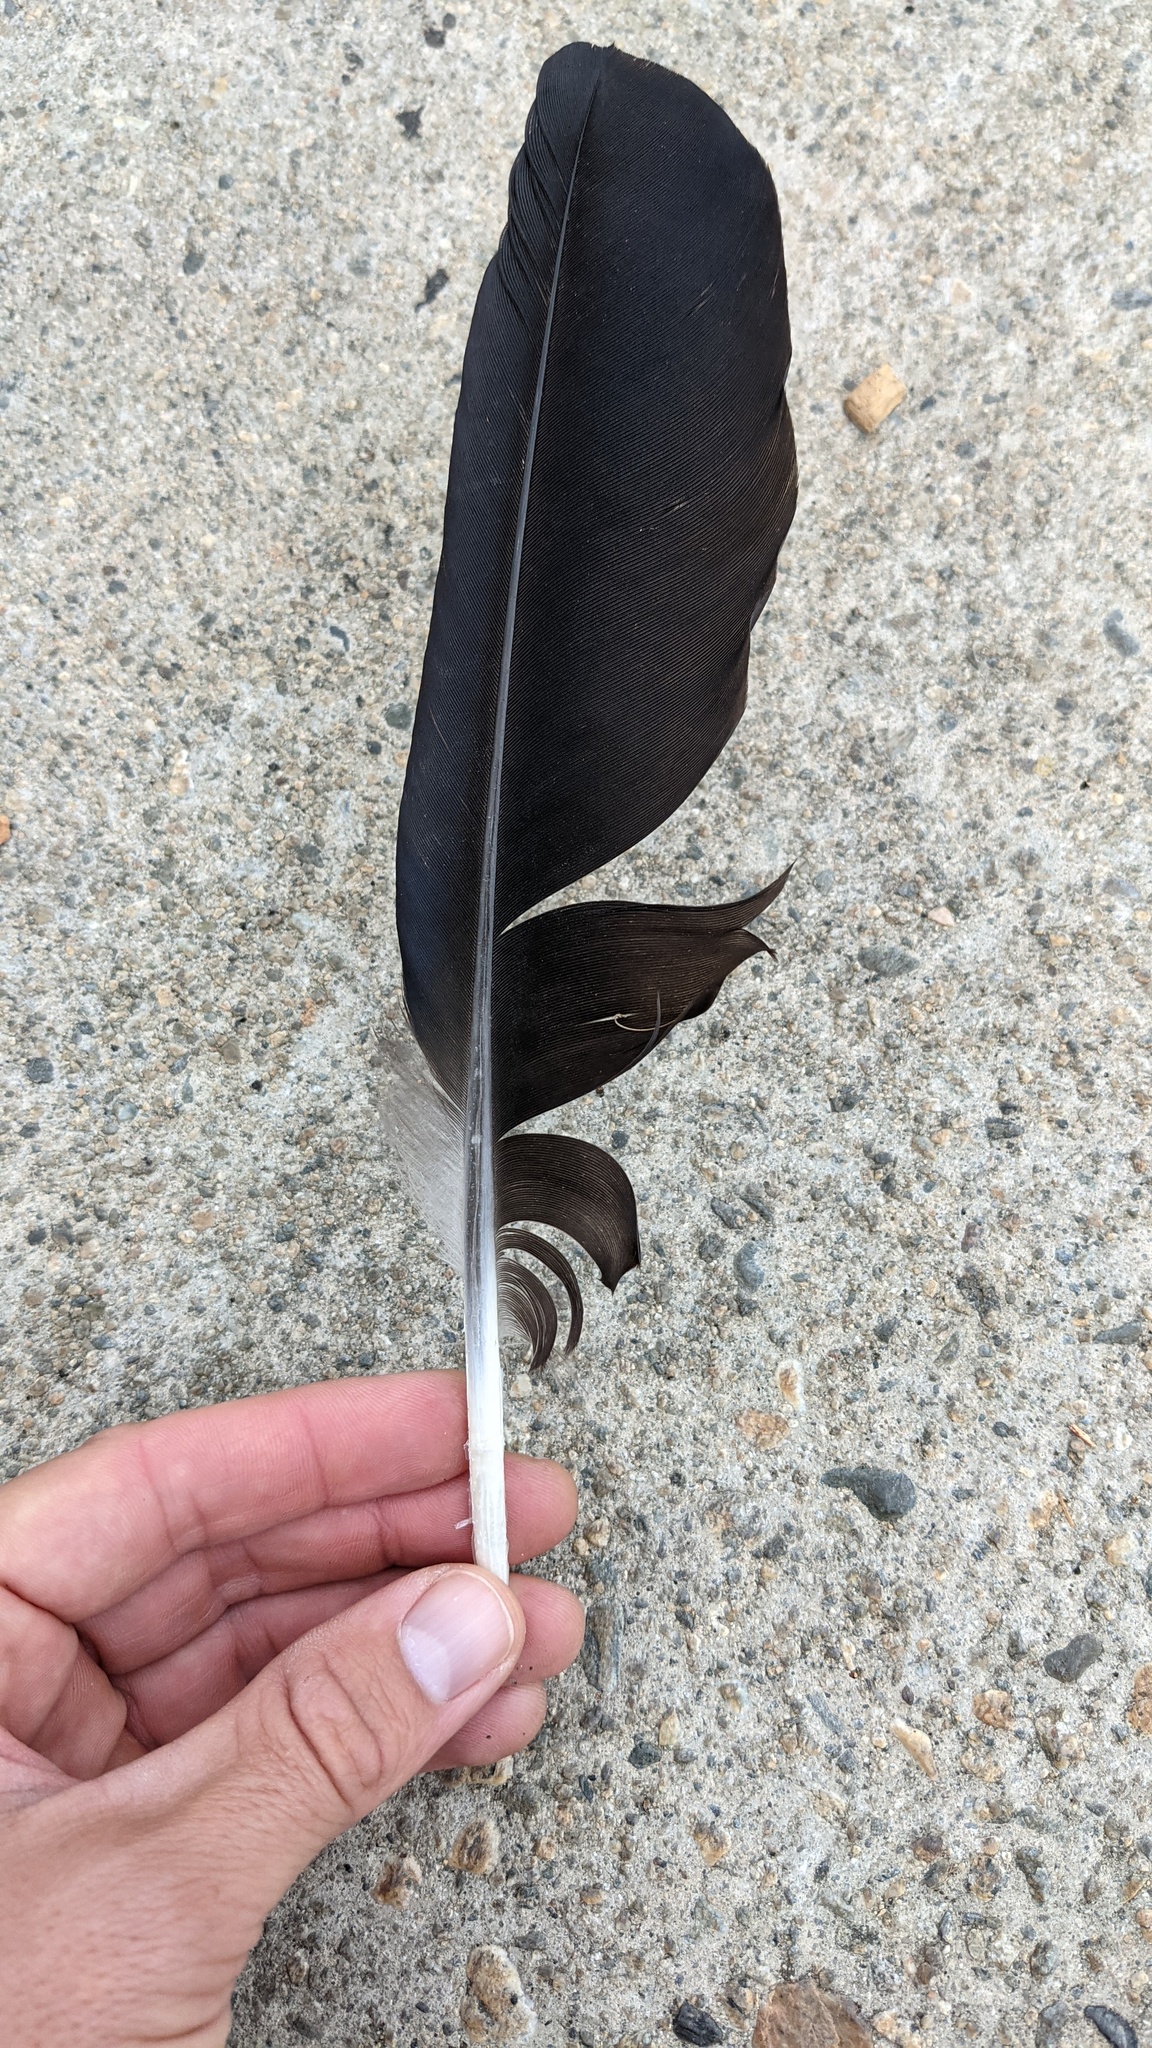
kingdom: Animalia
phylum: Chordata
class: Aves
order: Passeriformes
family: Corvidae
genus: Corvus
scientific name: Corvus corax
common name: Common raven
